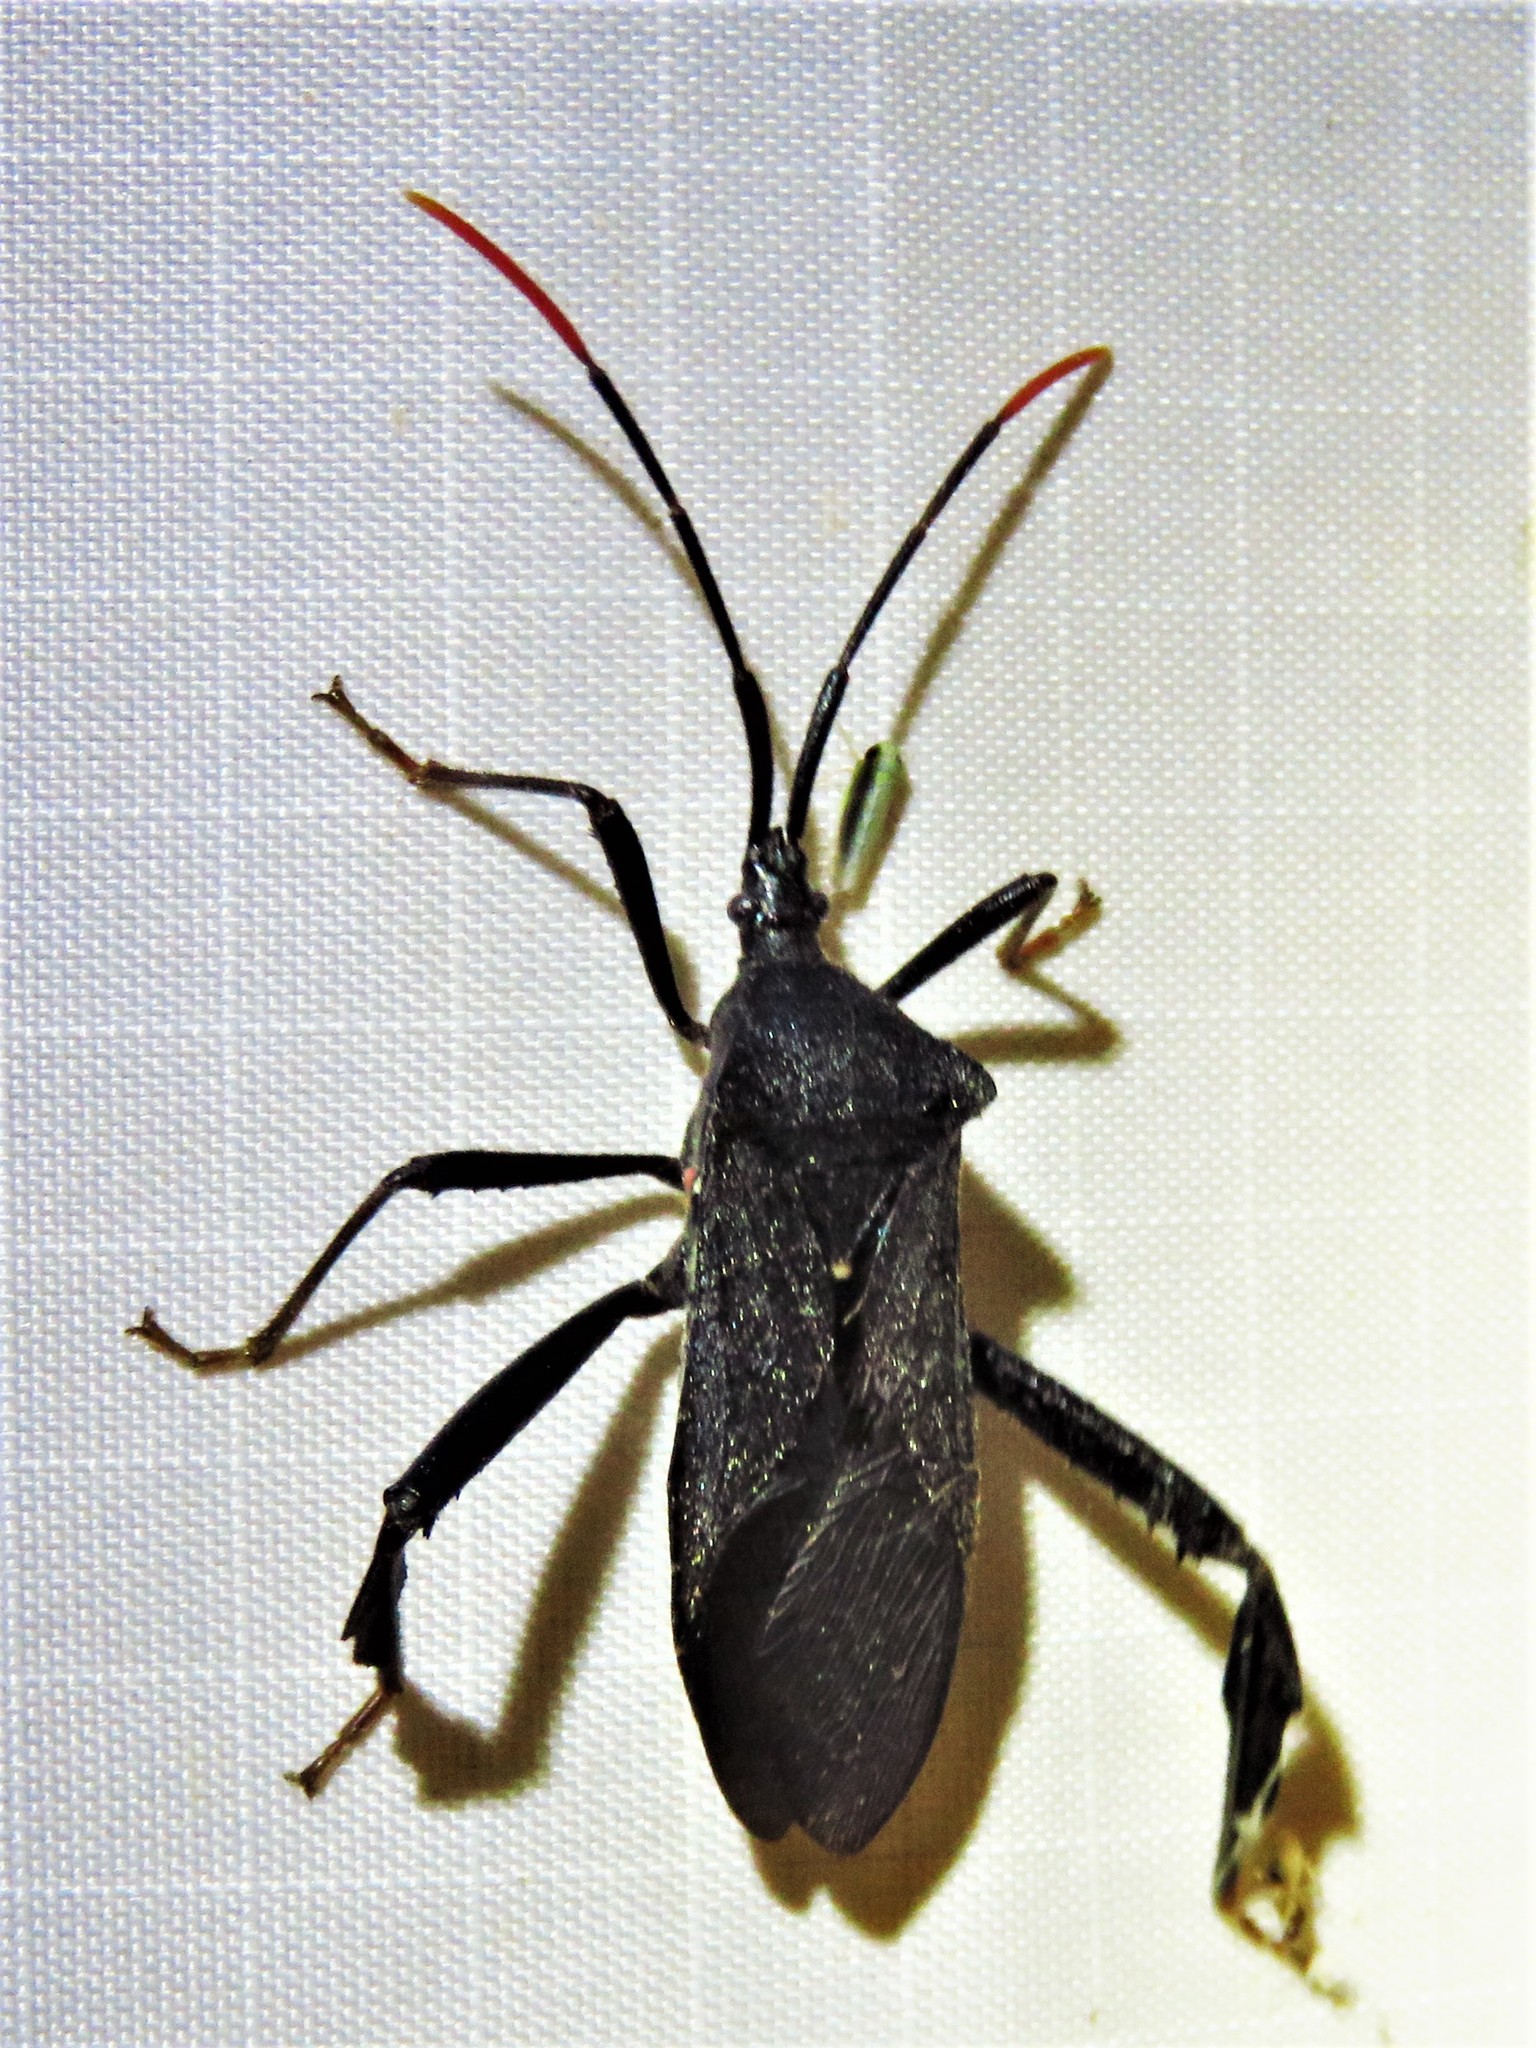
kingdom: Animalia
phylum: Arthropoda
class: Insecta
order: Hemiptera
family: Coreidae
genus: Acanthocephala
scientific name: Acanthocephala terminalis
